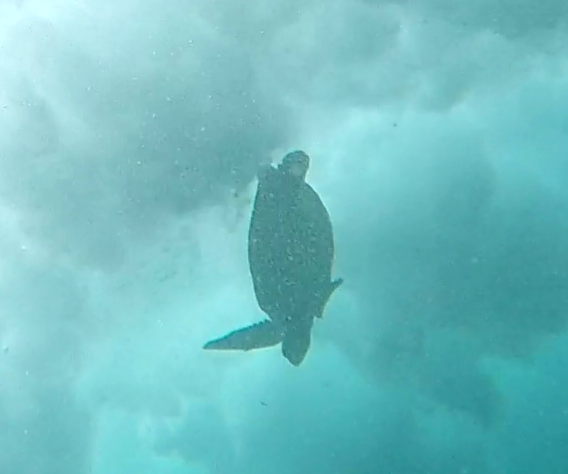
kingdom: Animalia
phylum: Chordata
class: Testudines
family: Cheloniidae
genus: Chelonia
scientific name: Chelonia mydas
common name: Green turtle
